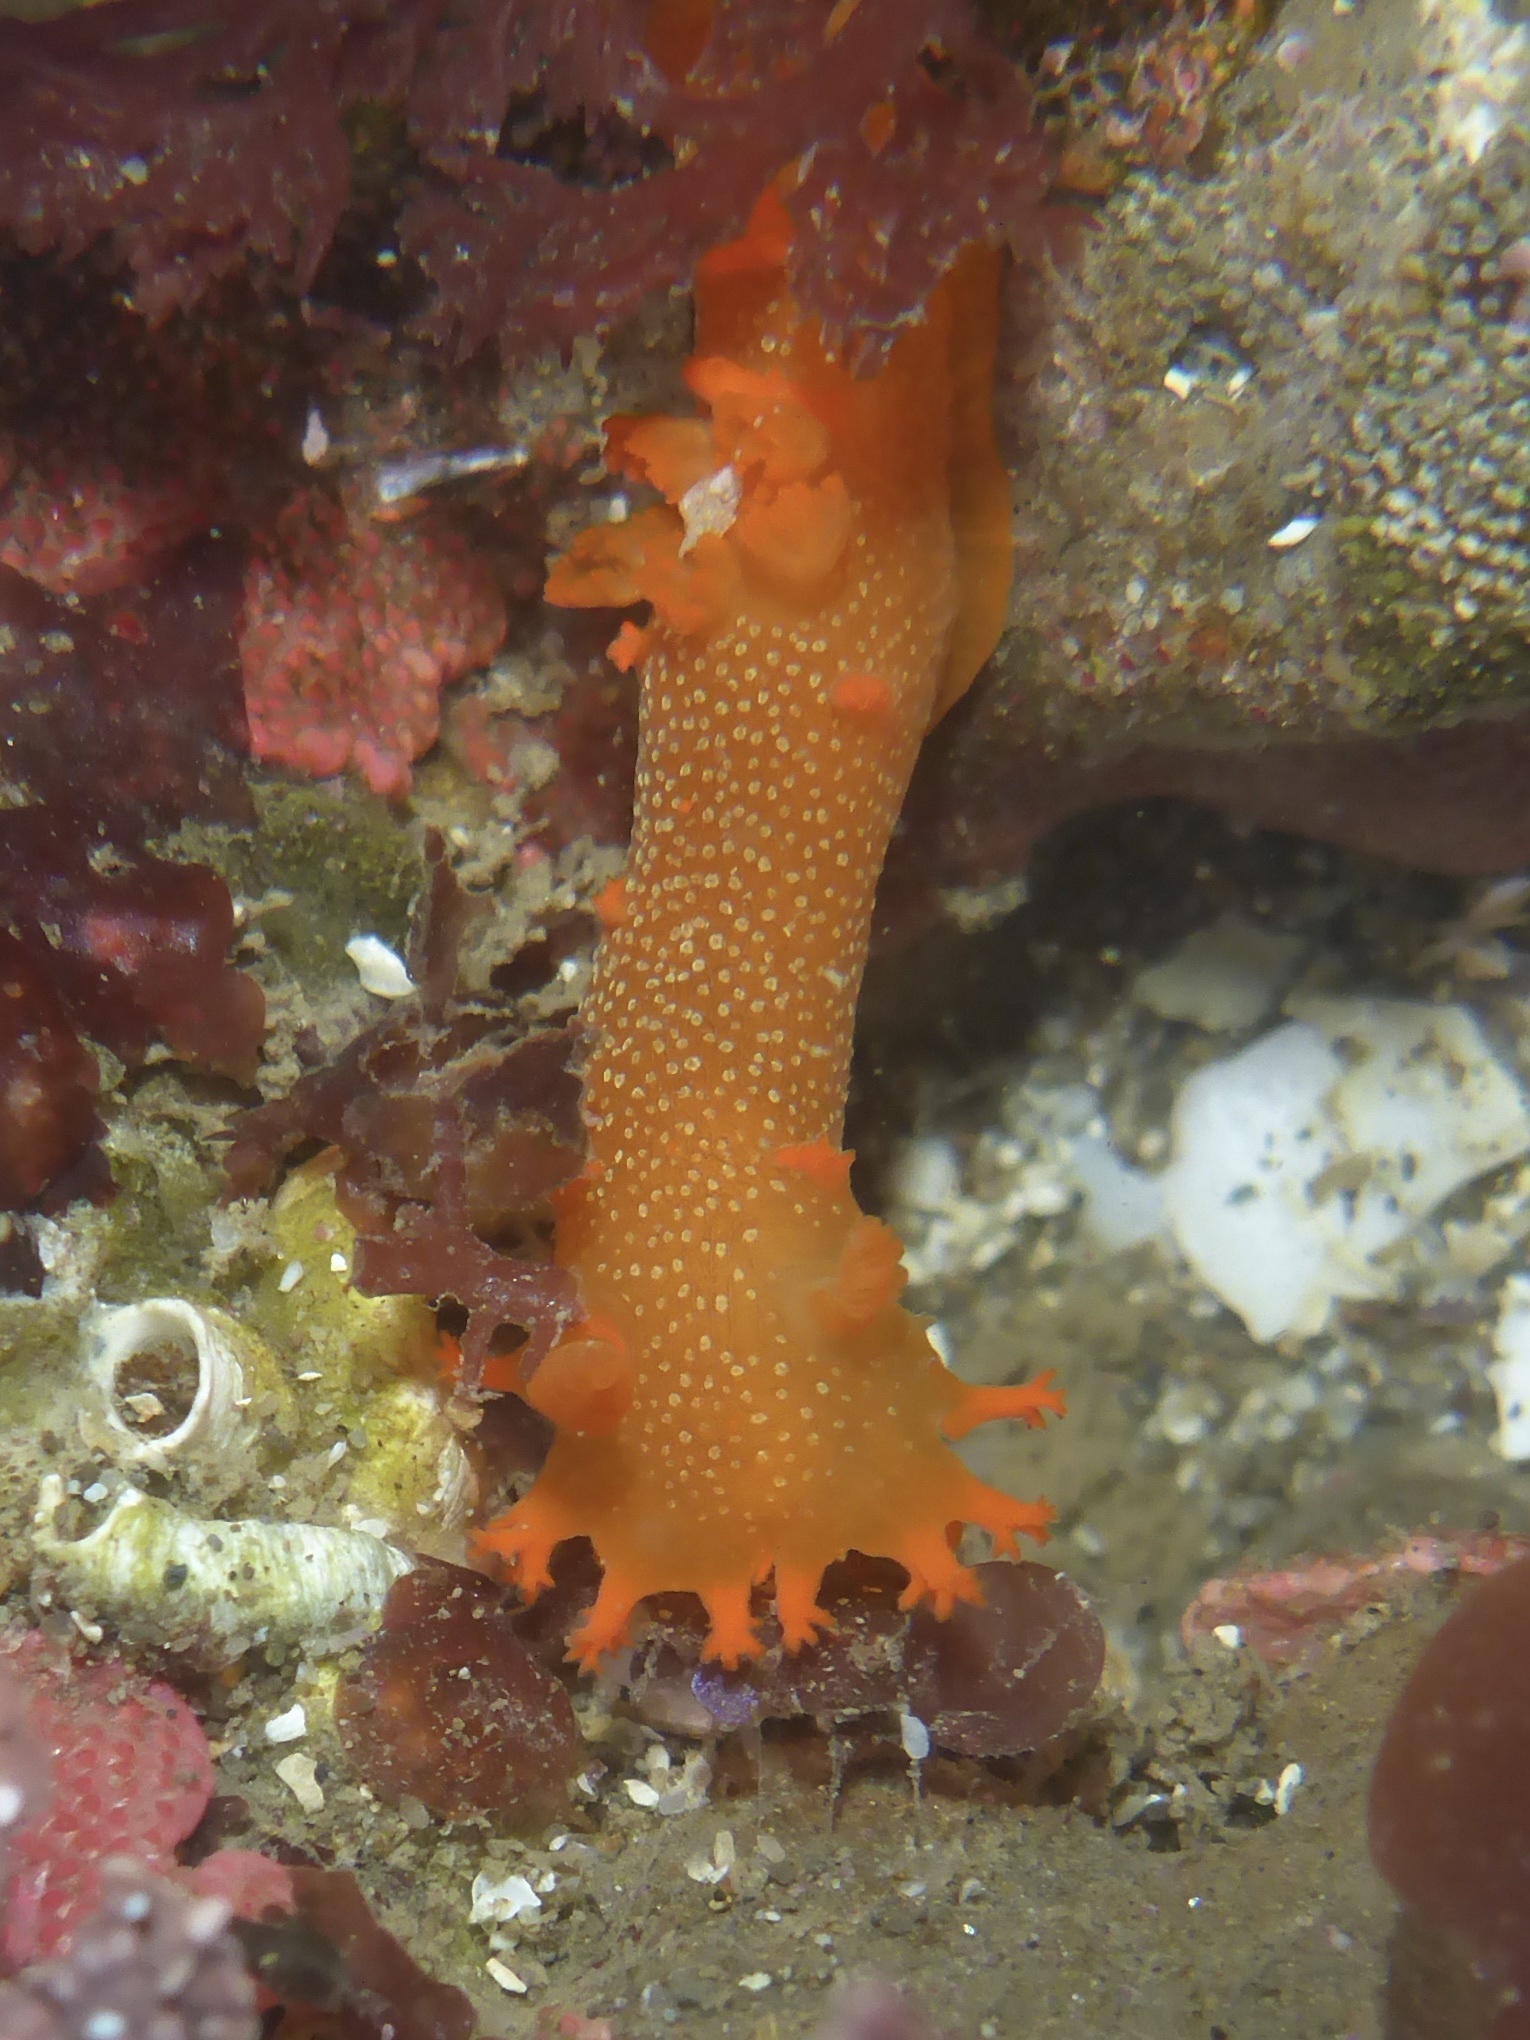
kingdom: Animalia
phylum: Mollusca
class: Gastropoda
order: Nudibranchia
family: Polyceridae
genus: Triopha
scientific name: Triopha maculata
